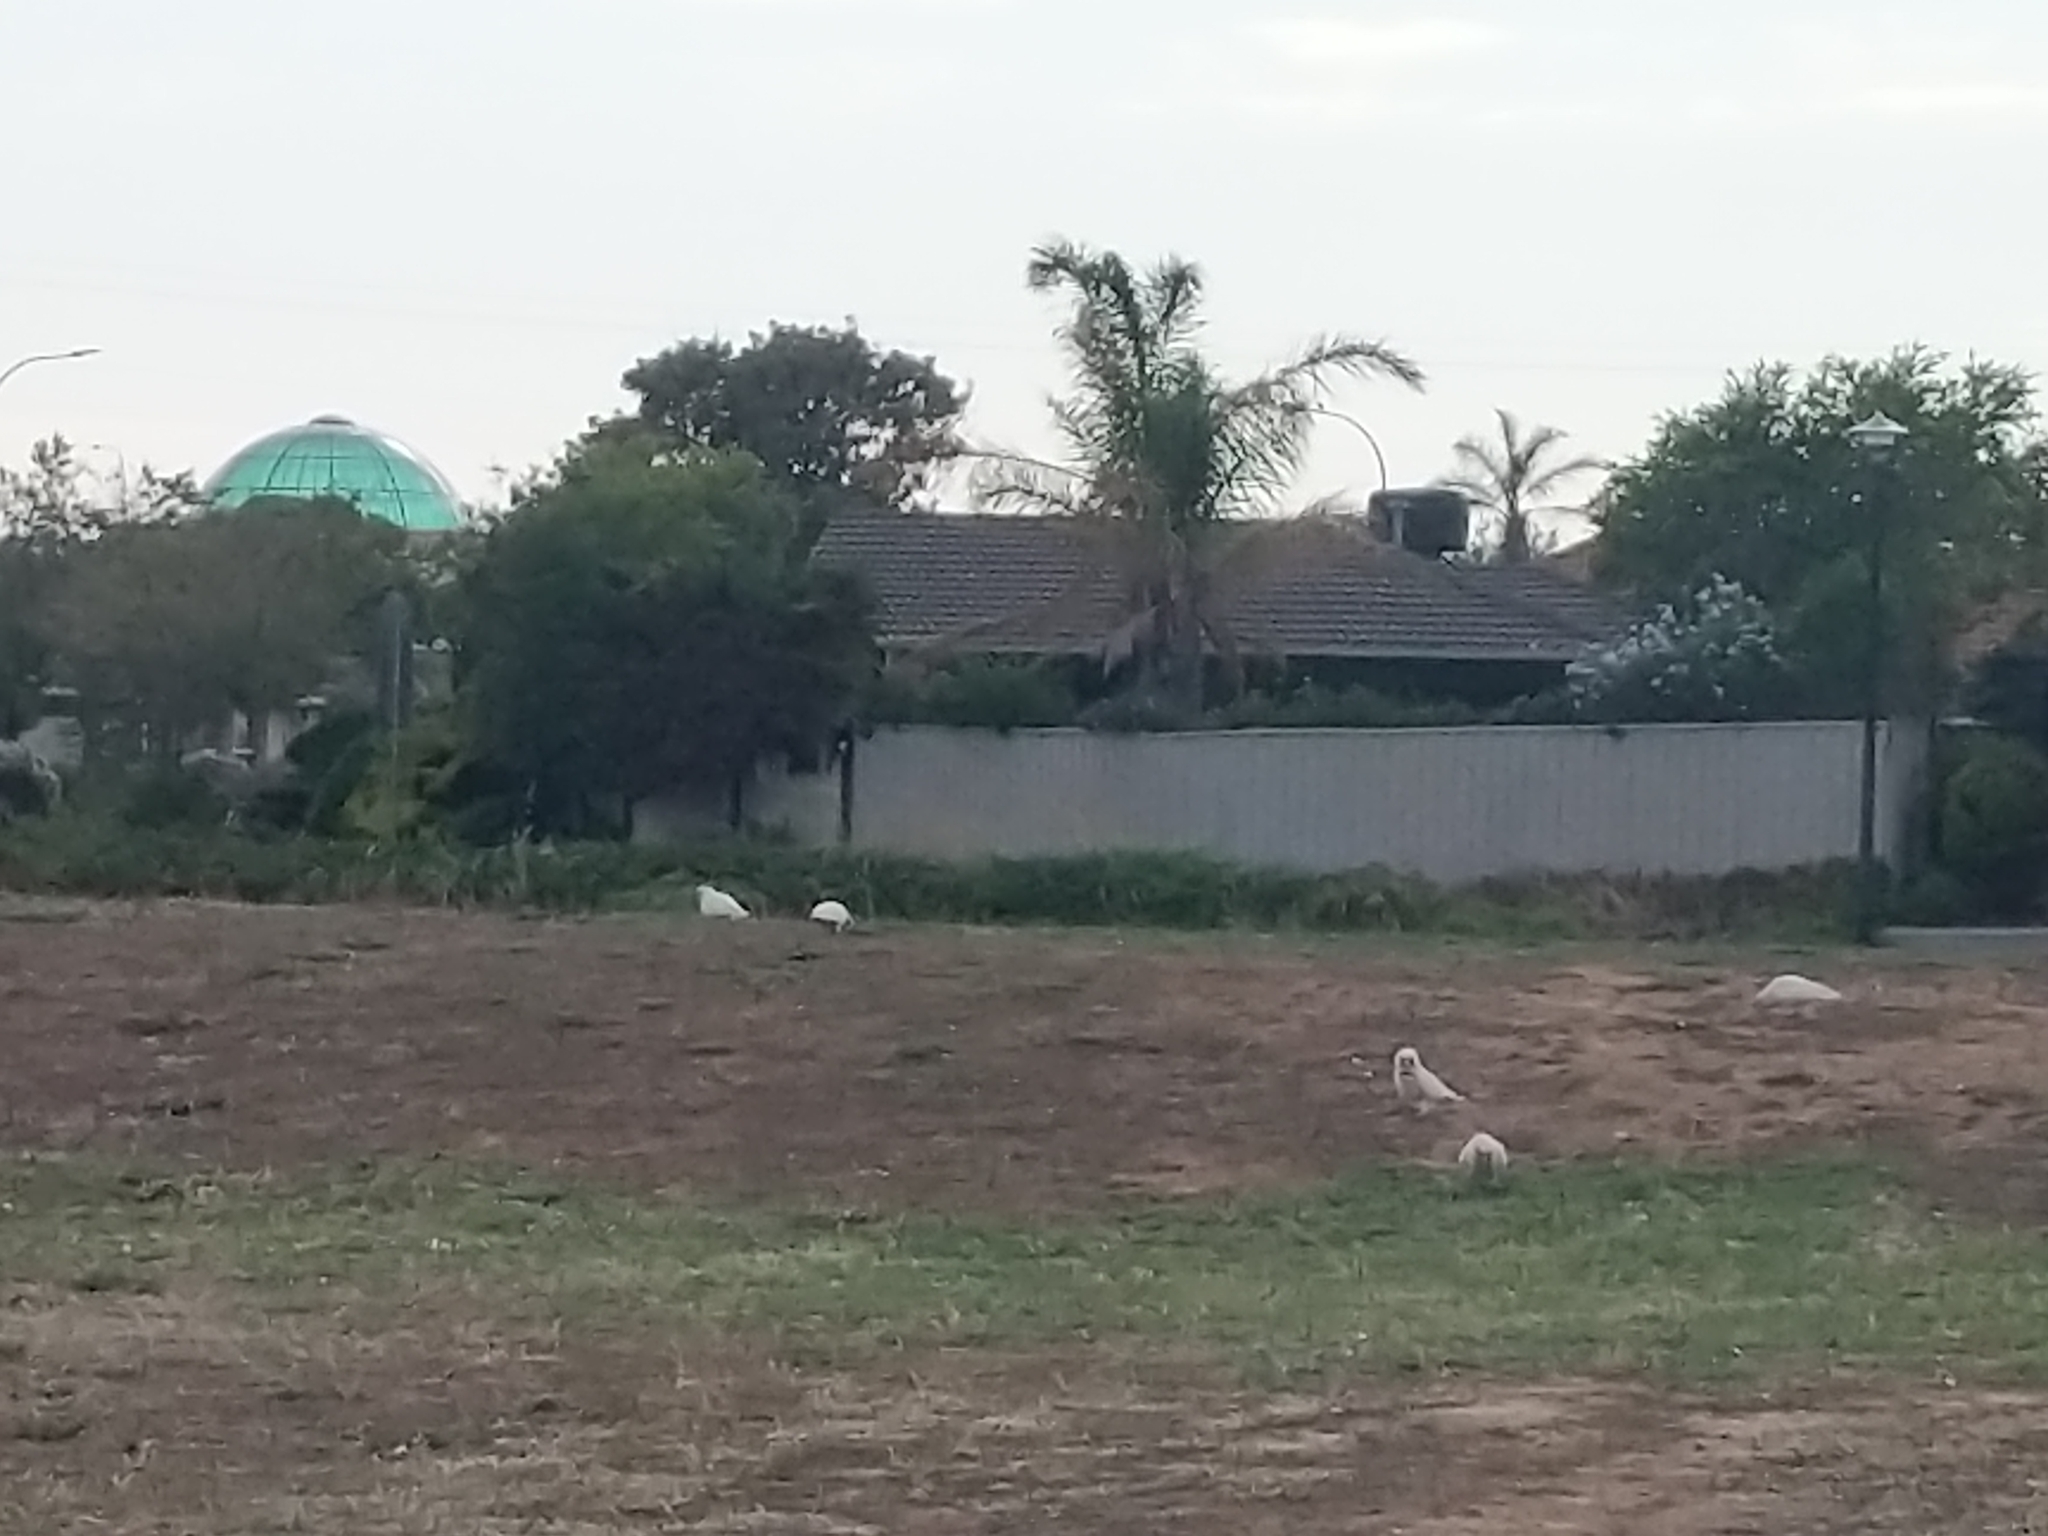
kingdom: Animalia
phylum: Chordata
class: Aves
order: Psittaciformes
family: Psittacidae
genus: Cacatua
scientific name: Cacatua sanguinea
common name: Little corella
